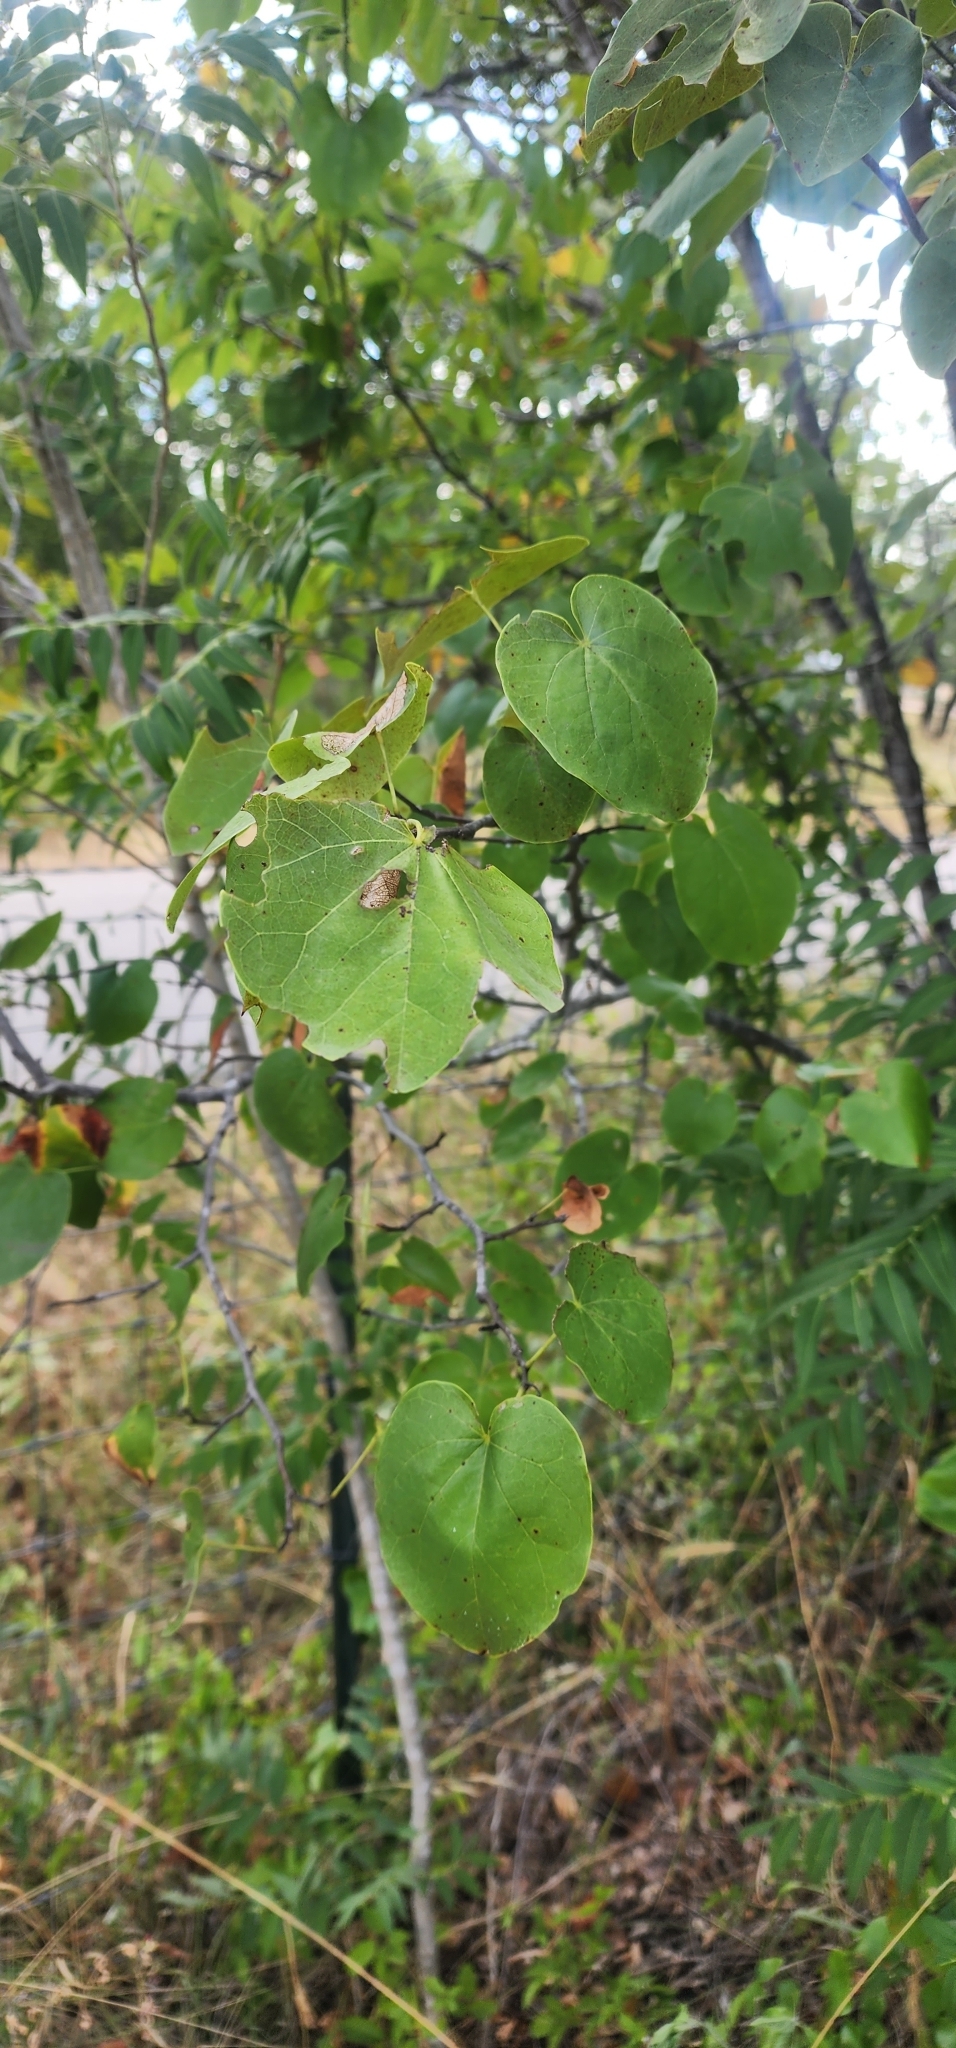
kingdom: Plantae
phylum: Tracheophyta
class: Magnoliopsida
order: Fabales
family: Fabaceae
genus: Cercis
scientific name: Cercis canadensis
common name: Eastern redbud
